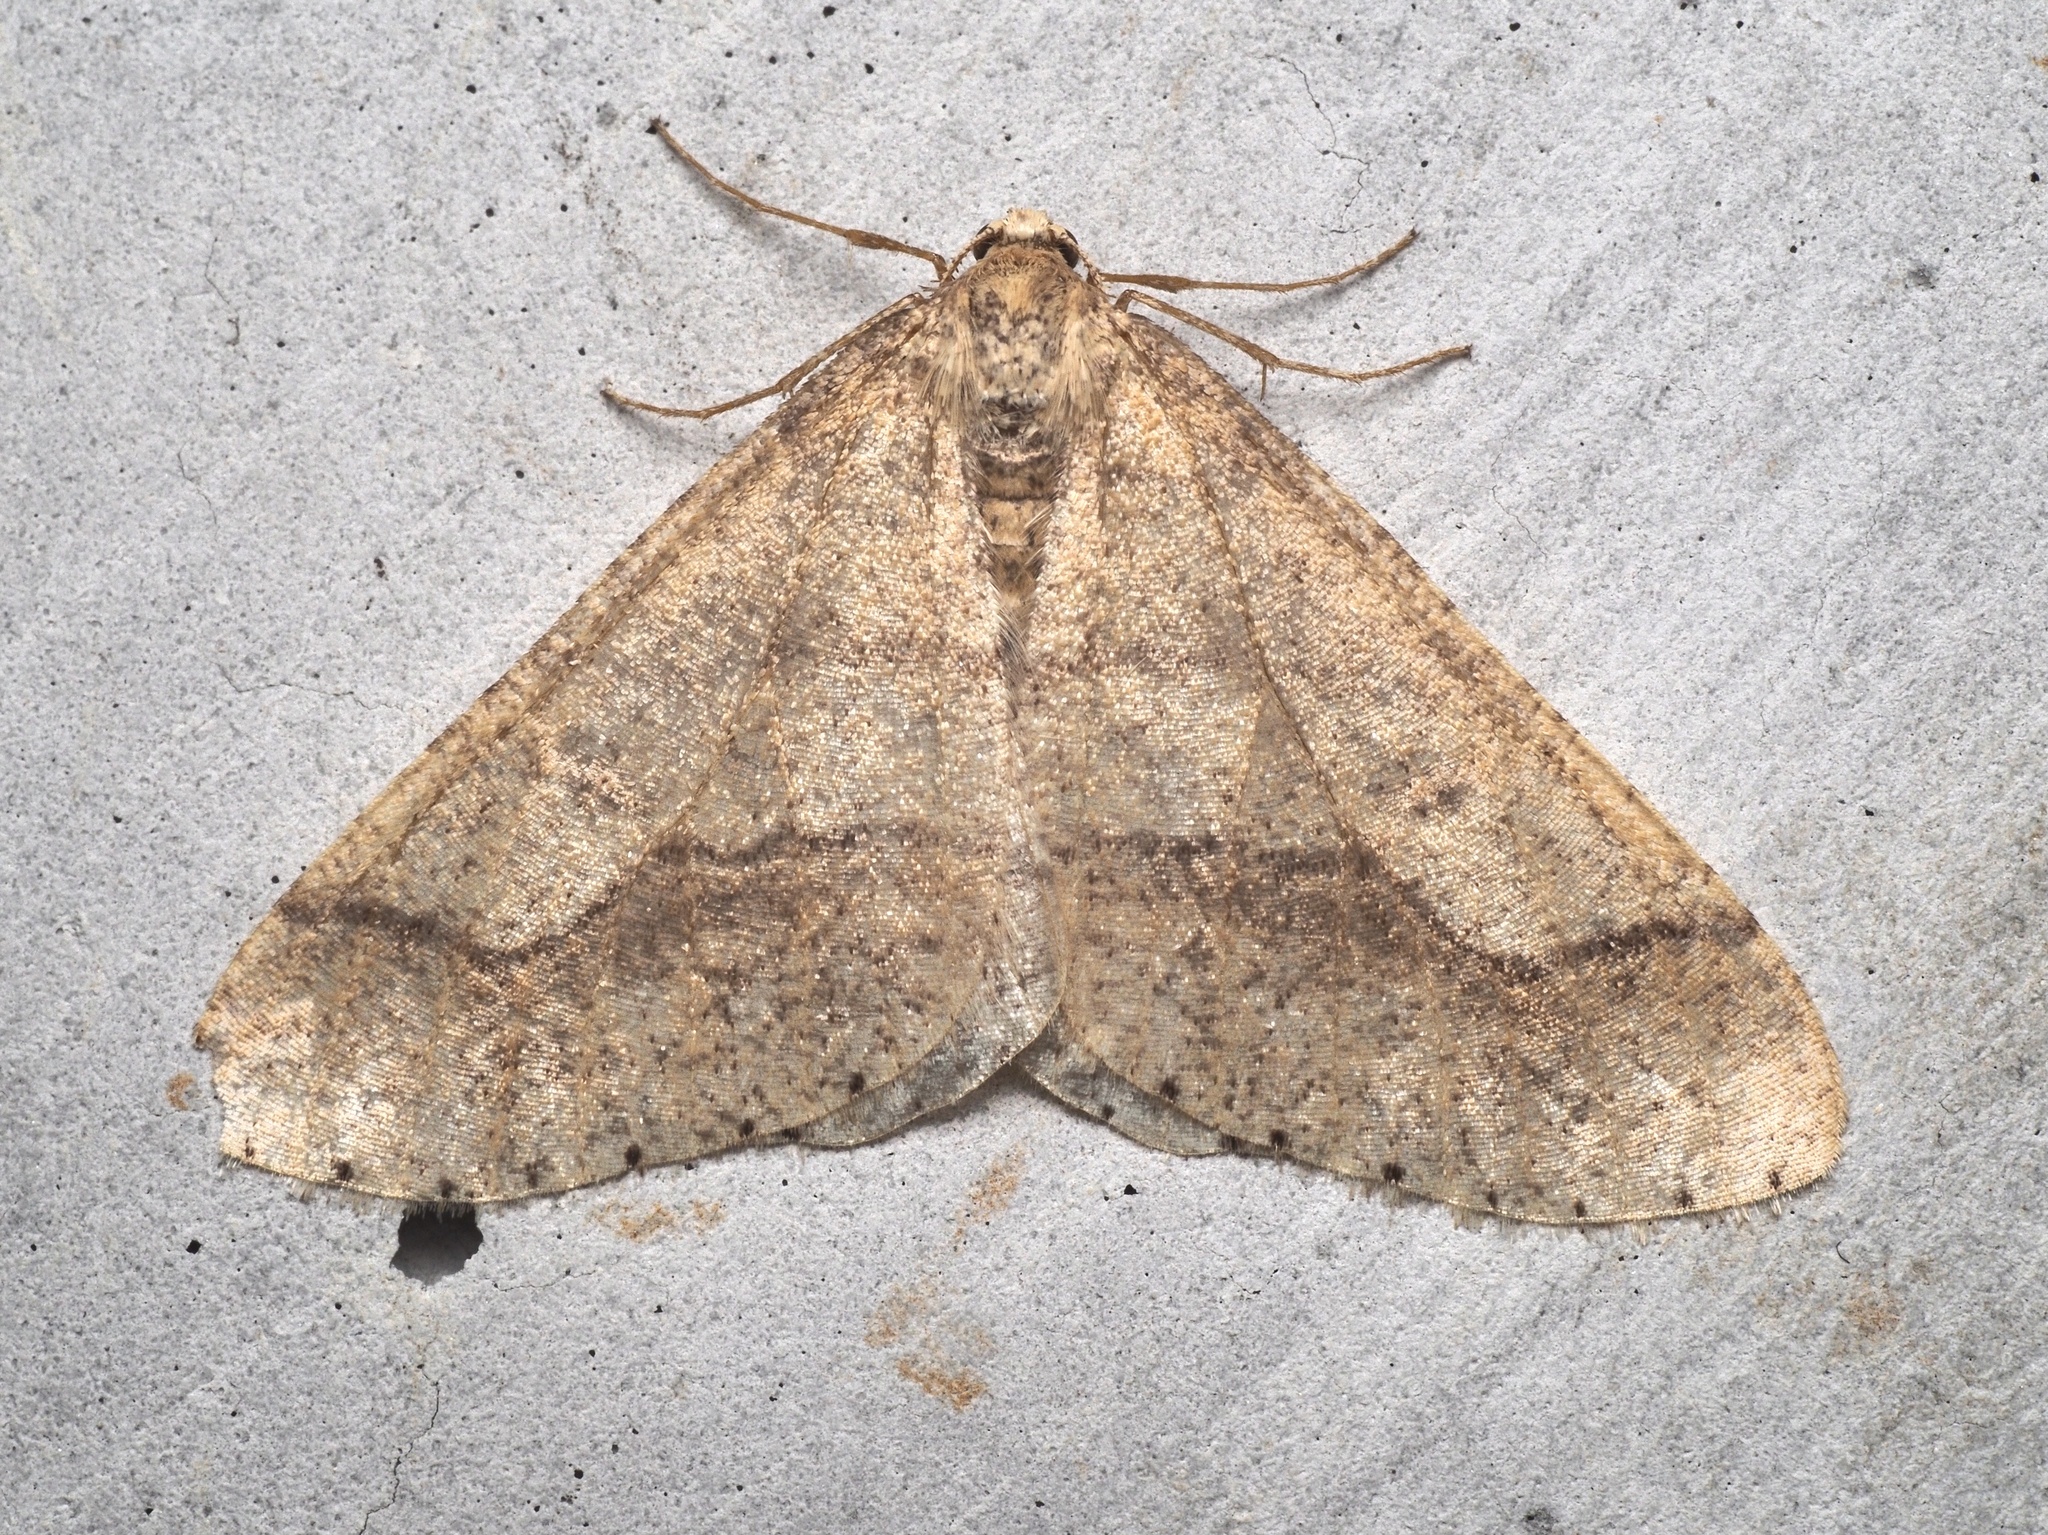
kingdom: Animalia
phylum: Arthropoda
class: Insecta
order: Lepidoptera
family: Geometridae
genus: Agriopis
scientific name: Agriopis marginaria
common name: Dotted border
